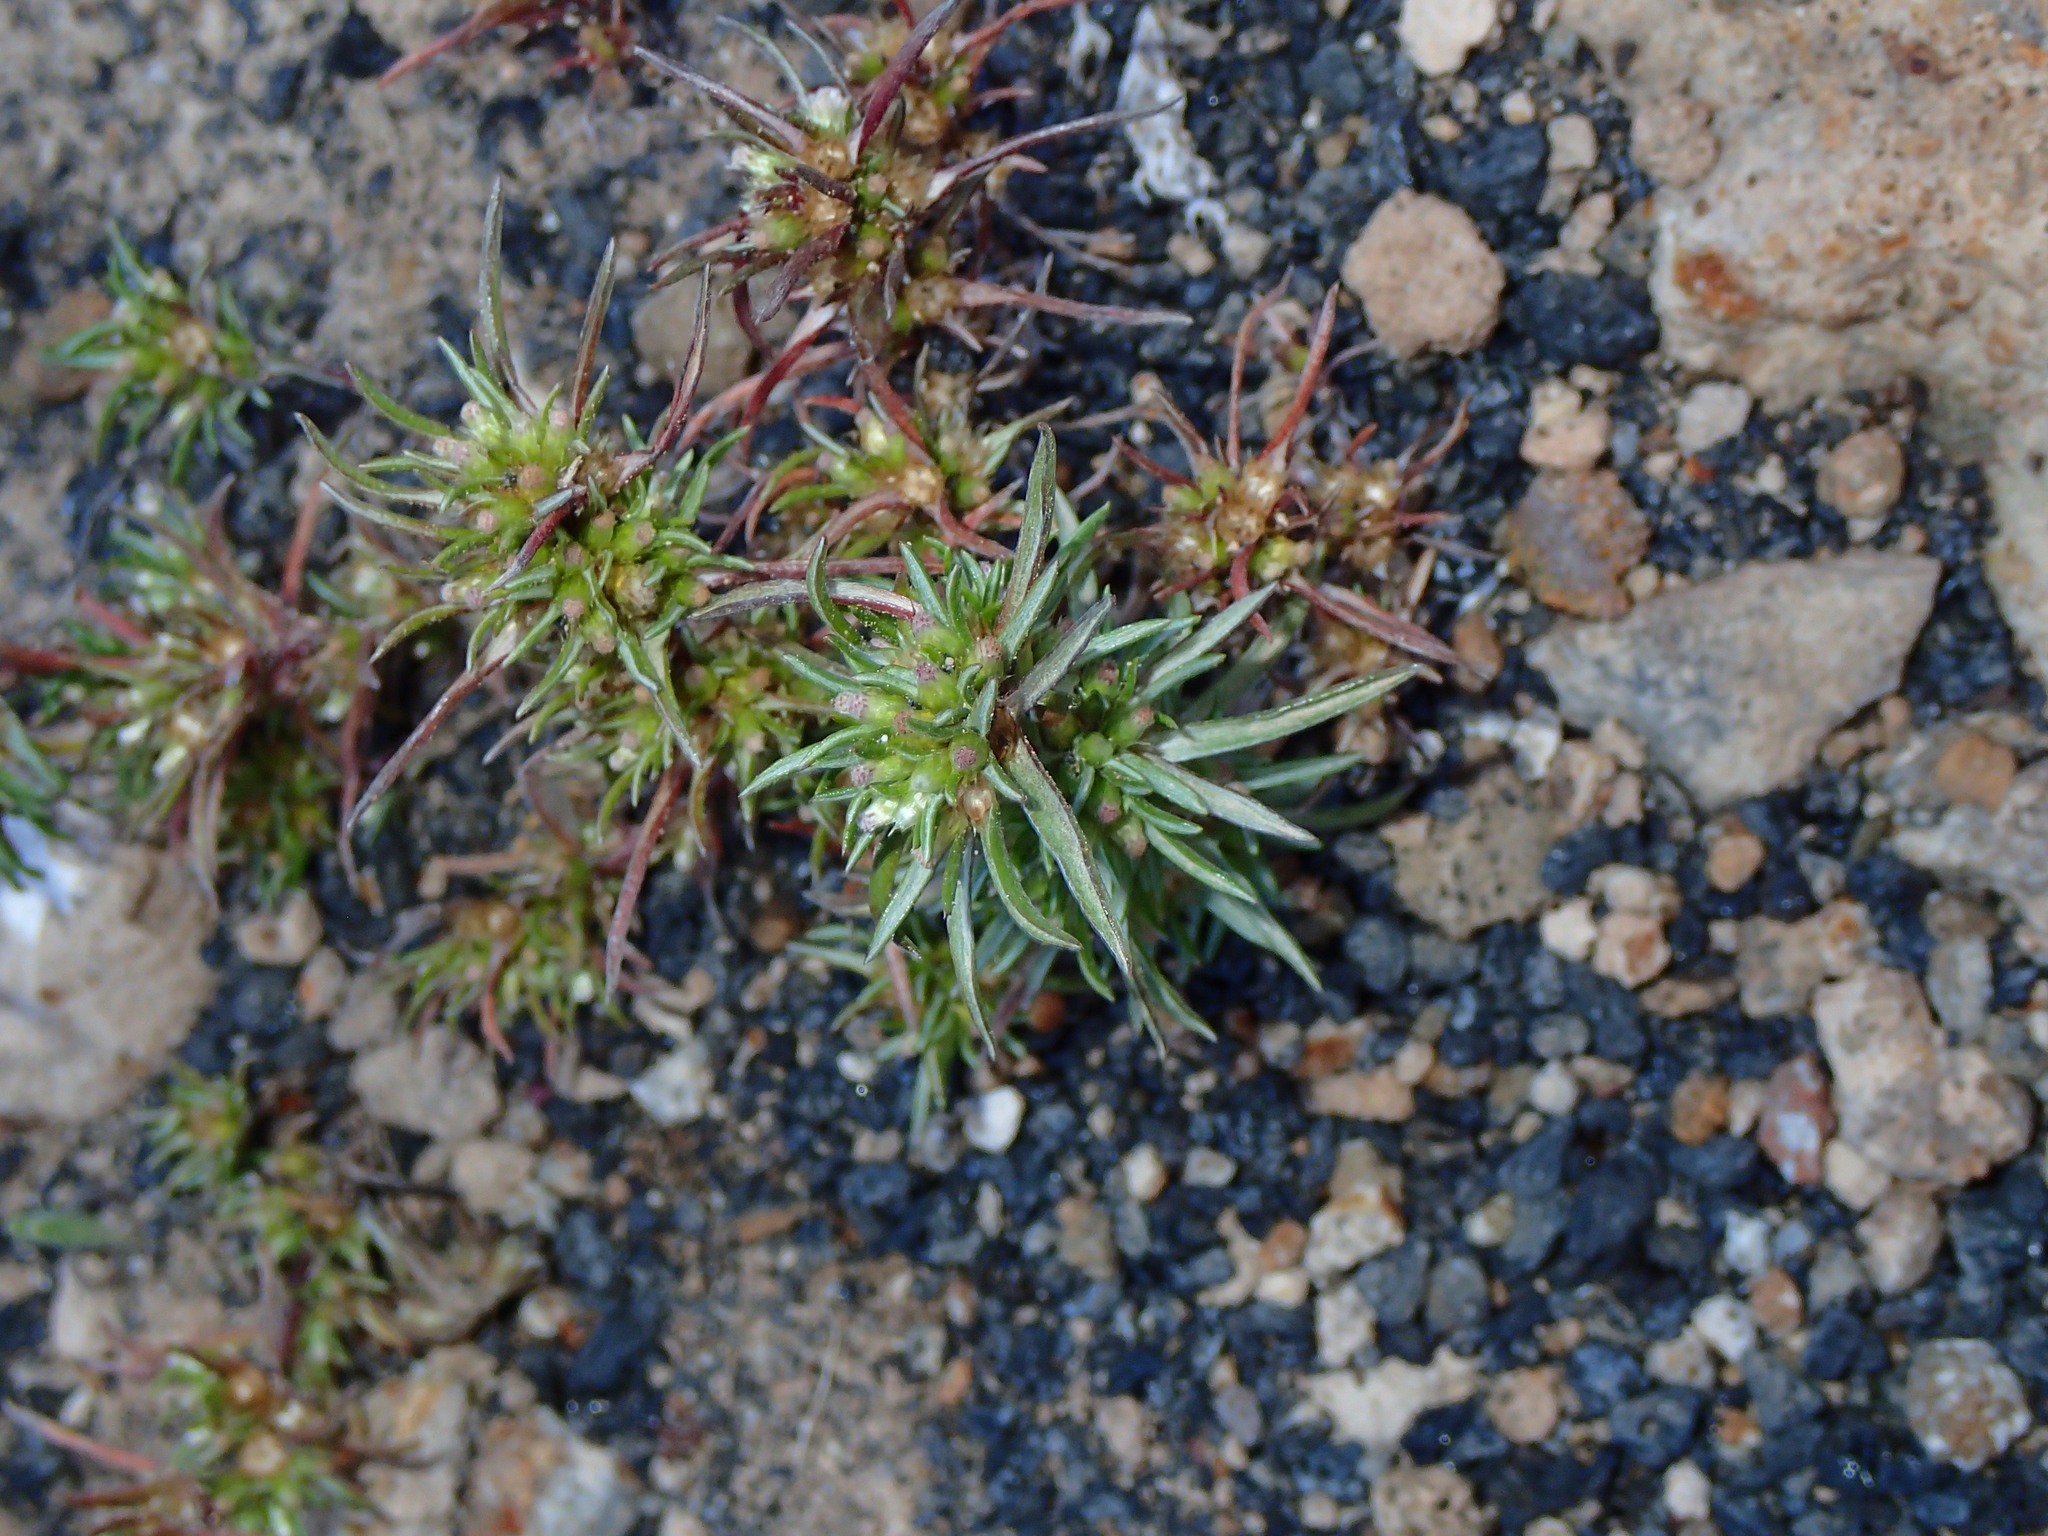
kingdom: Plantae
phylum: Tracheophyta
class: Magnoliopsida
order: Asterales
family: Asteraceae
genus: Ifloga
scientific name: Ifloga spicata
